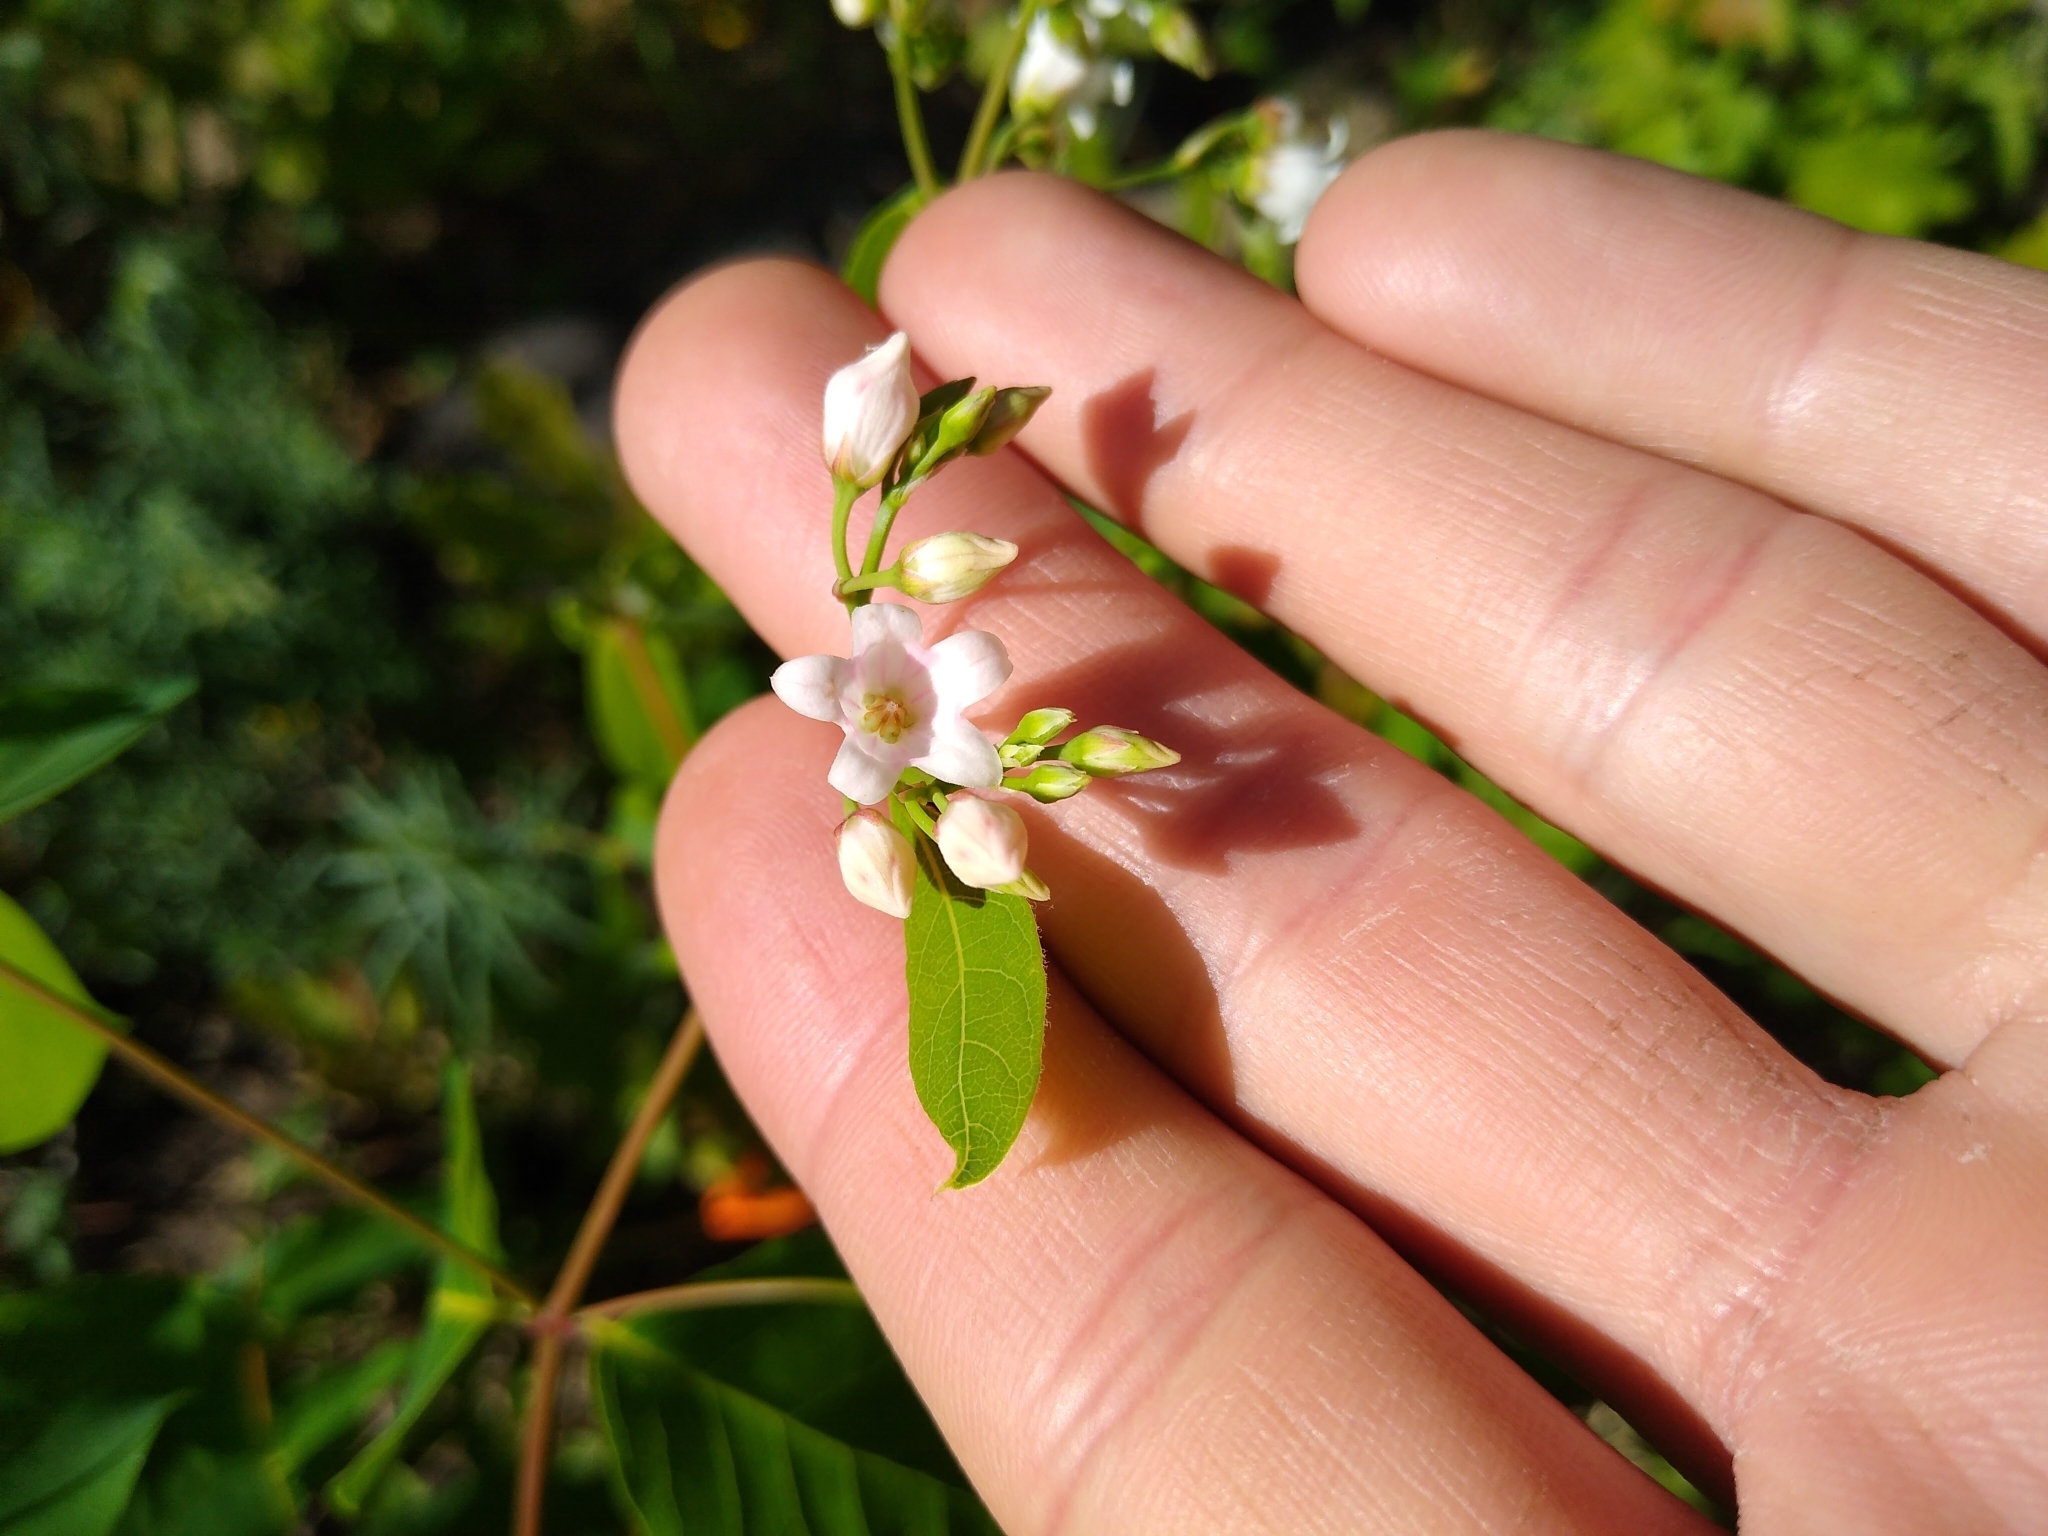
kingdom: Plantae
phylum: Tracheophyta
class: Magnoliopsida
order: Gentianales
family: Apocynaceae
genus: Apocynum
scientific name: Apocynum androsaemifolium
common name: Spreading dogbane
